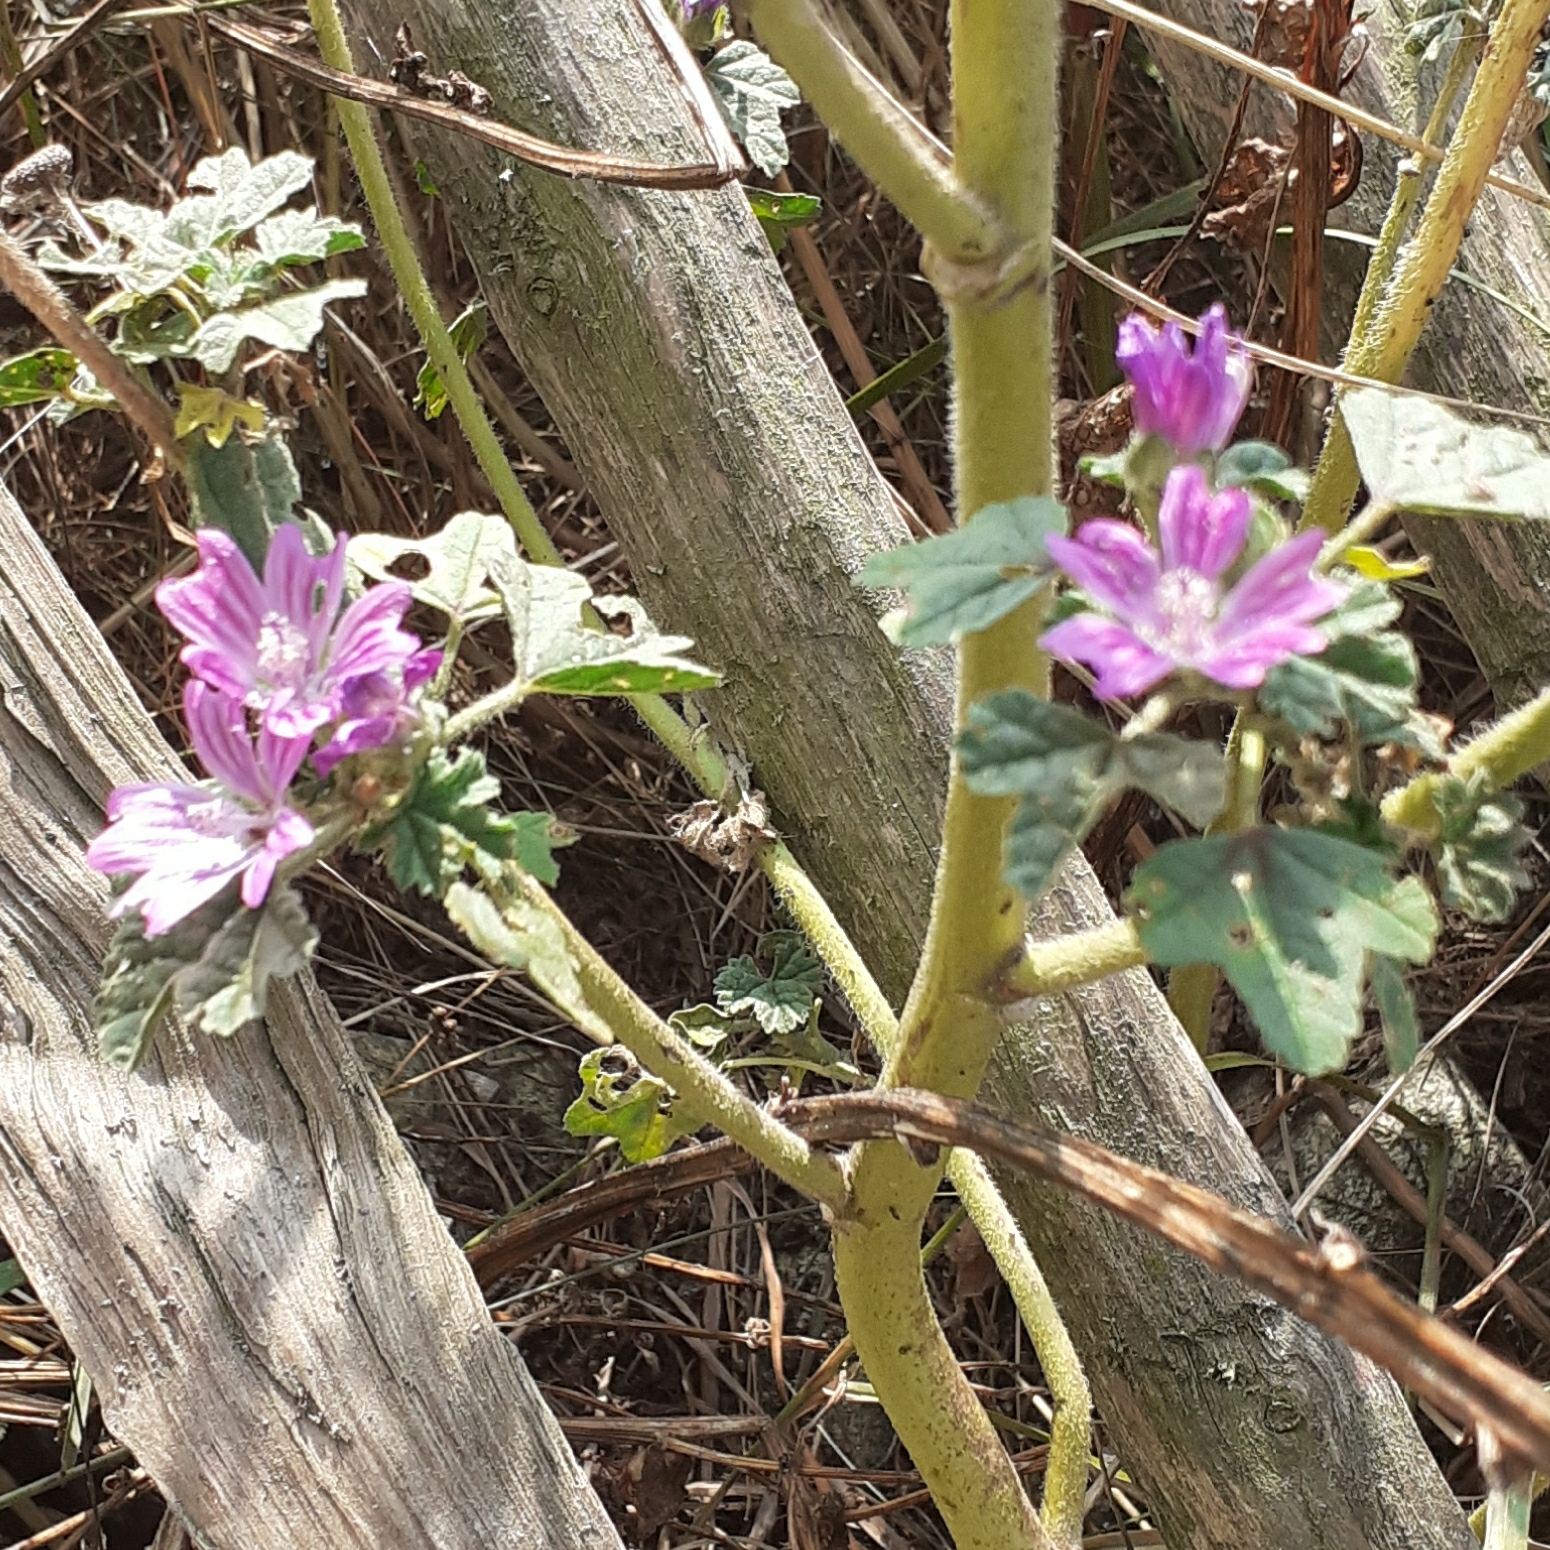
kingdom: Plantae
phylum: Tracheophyta
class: Magnoliopsida
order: Malvales
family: Malvaceae
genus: Malva
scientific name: Malva sylvestris
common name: Common mallow
